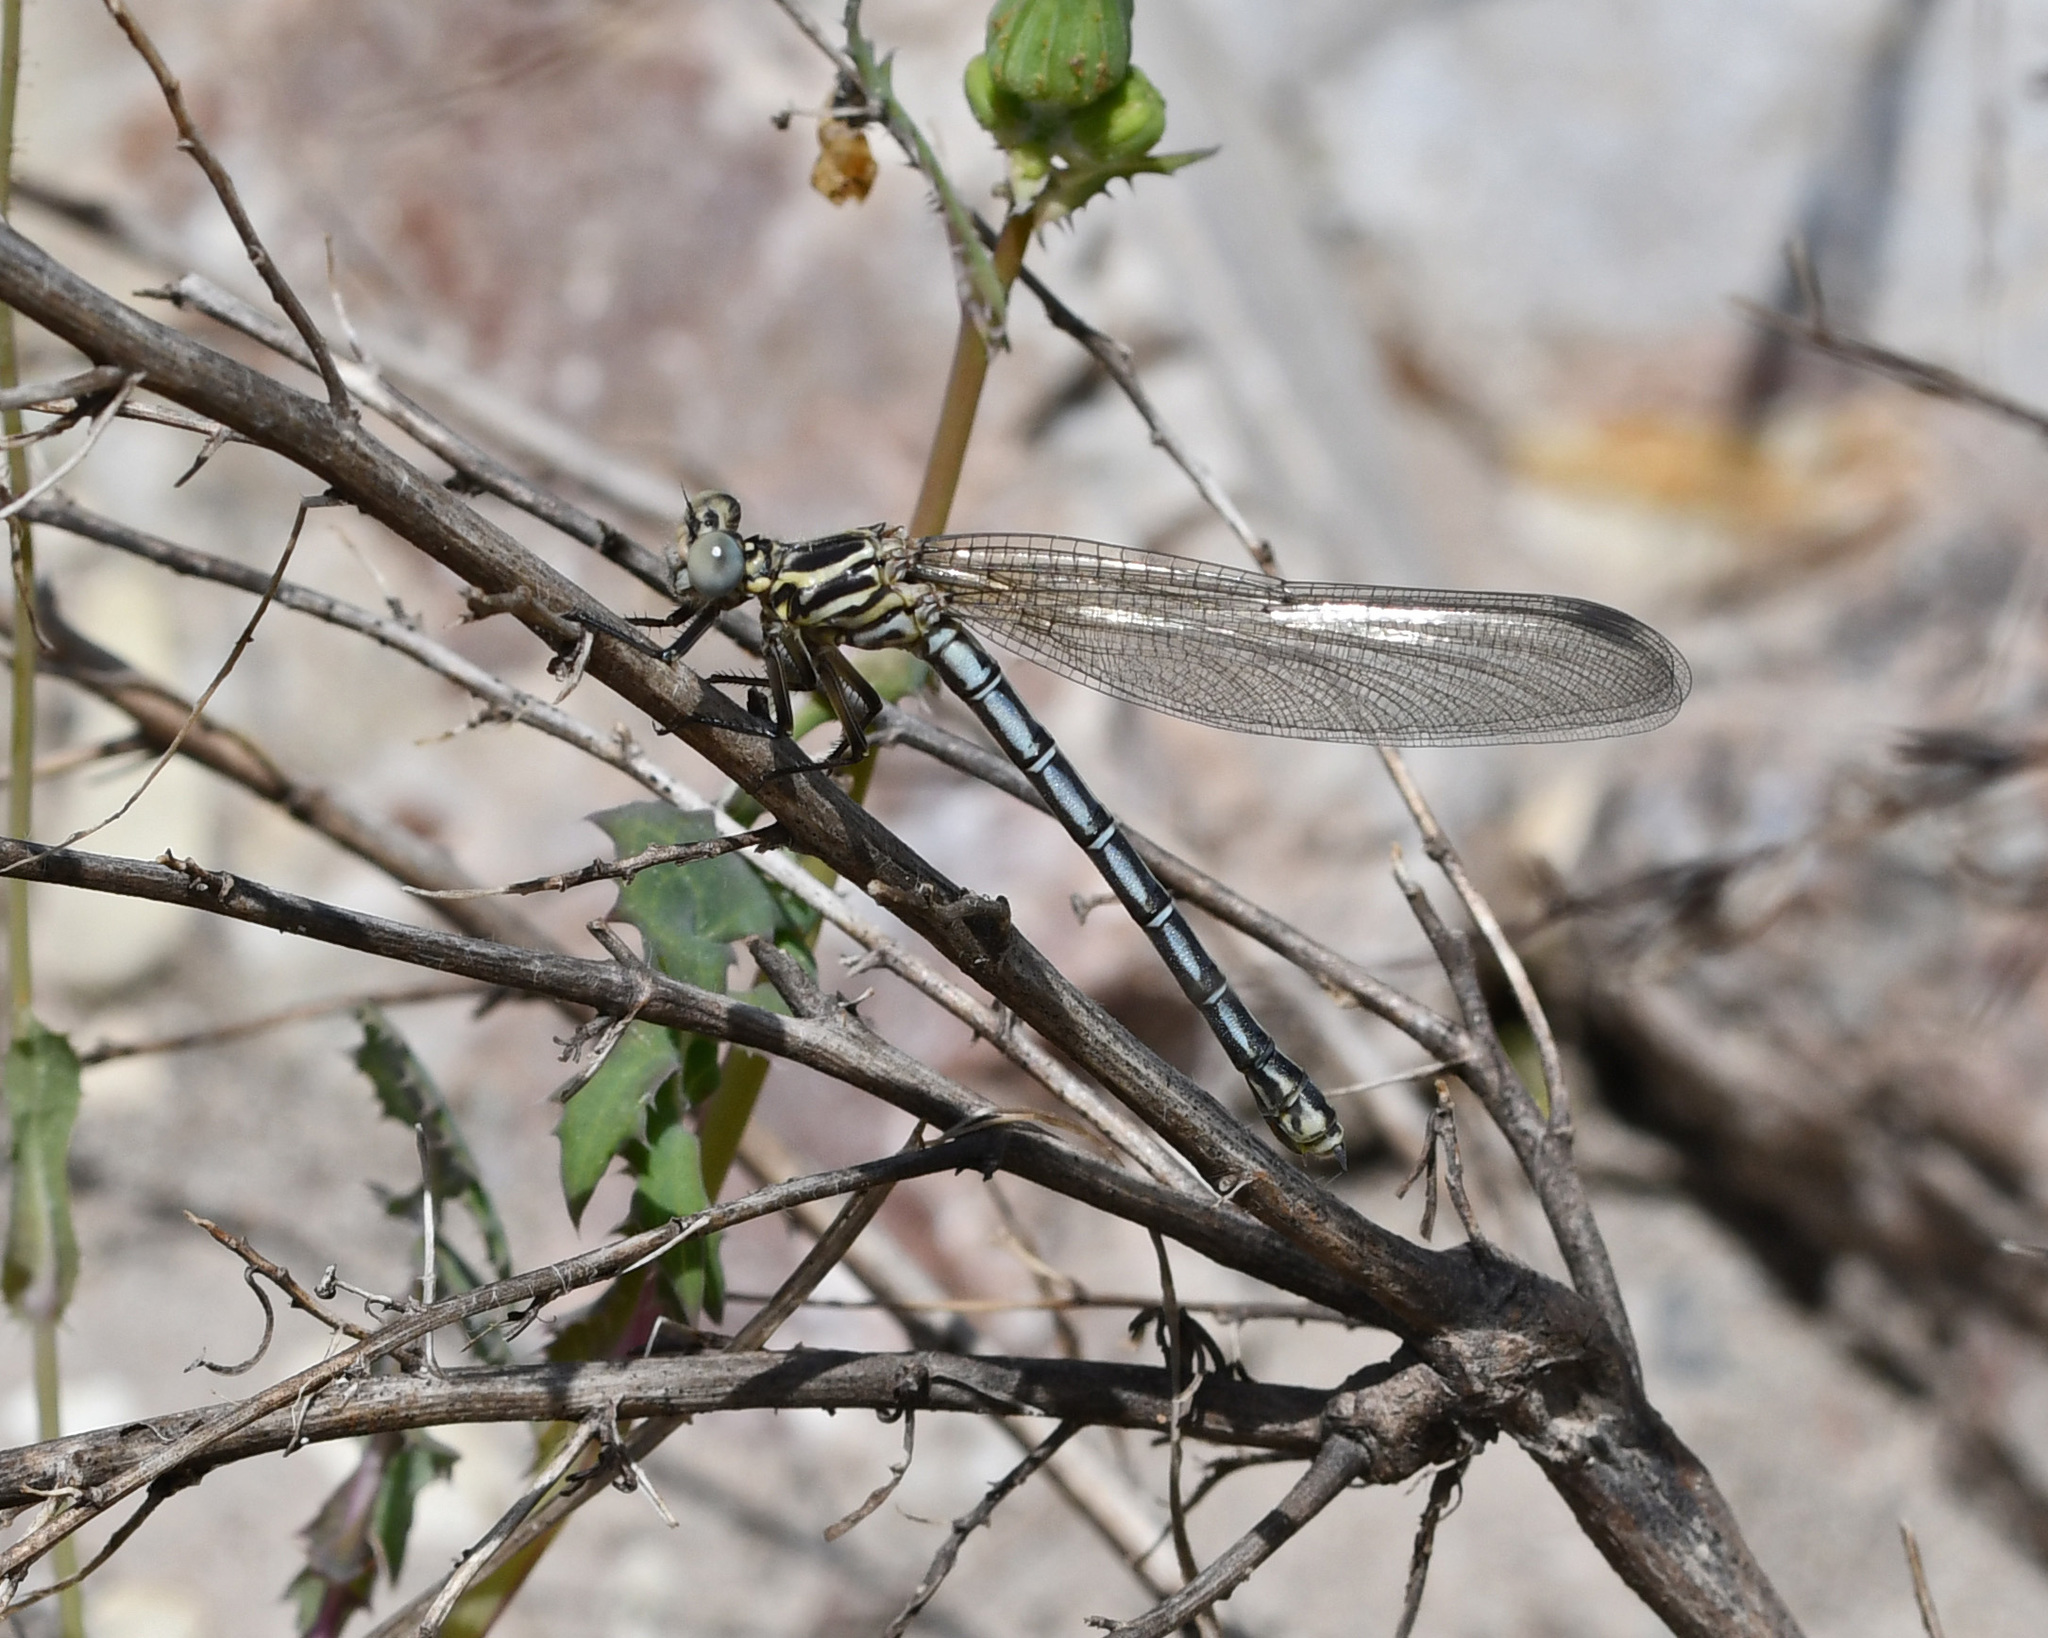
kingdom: Animalia
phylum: Arthropoda
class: Insecta
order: Odonata
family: Euphaeidae
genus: Epallage
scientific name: Epallage fatime
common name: Odalisque
